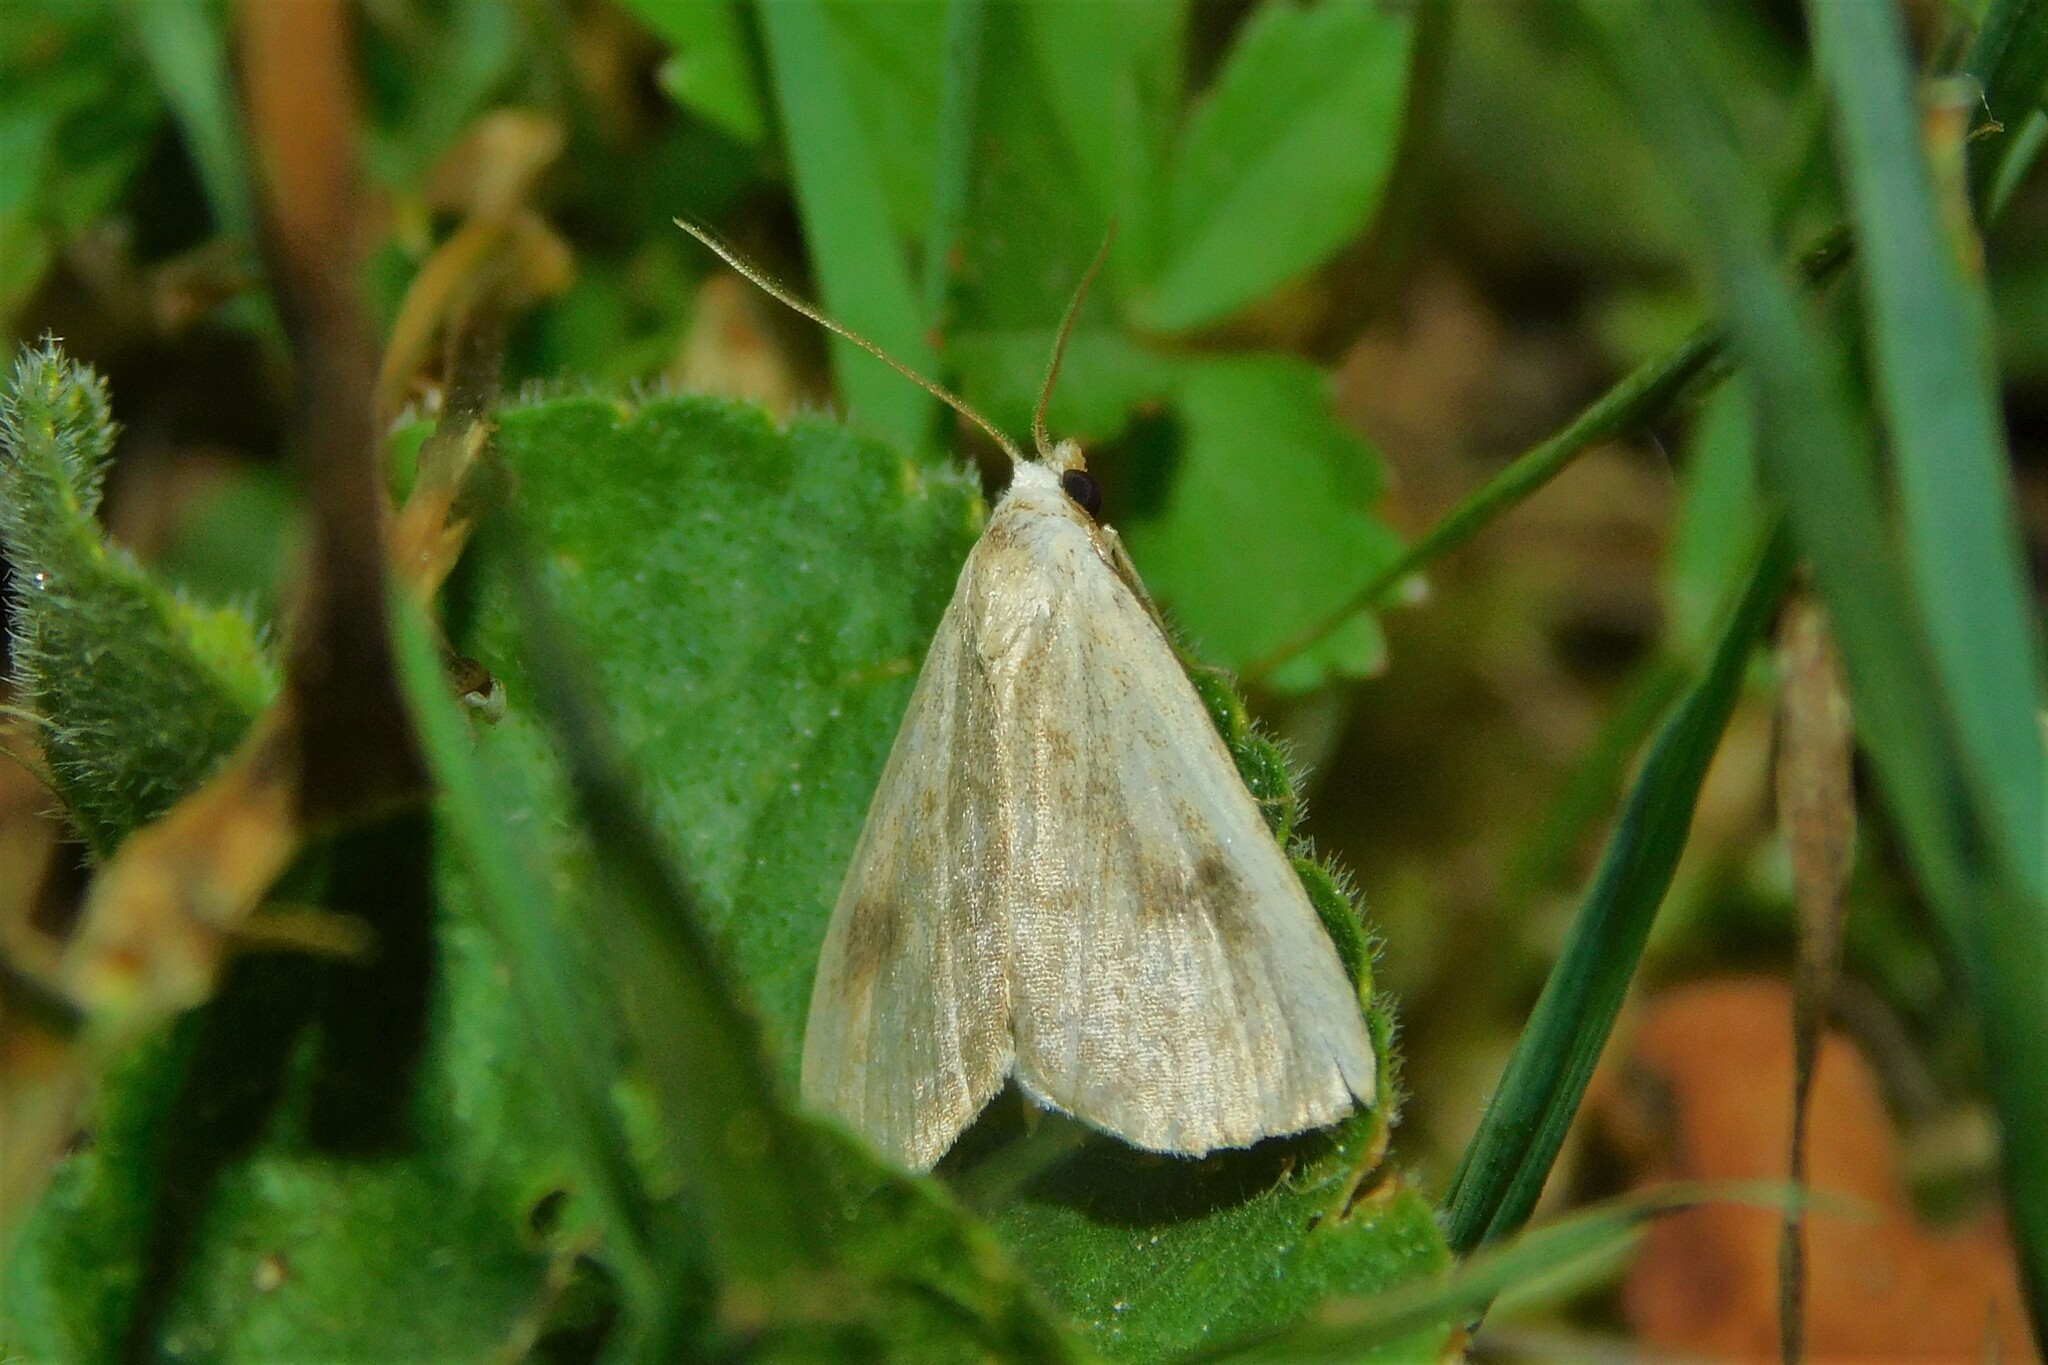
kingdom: Animalia
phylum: Arthropoda
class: Insecta
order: Lepidoptera
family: Erebidae
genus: Rivula
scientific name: Rivula sericealis
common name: Straw dot
